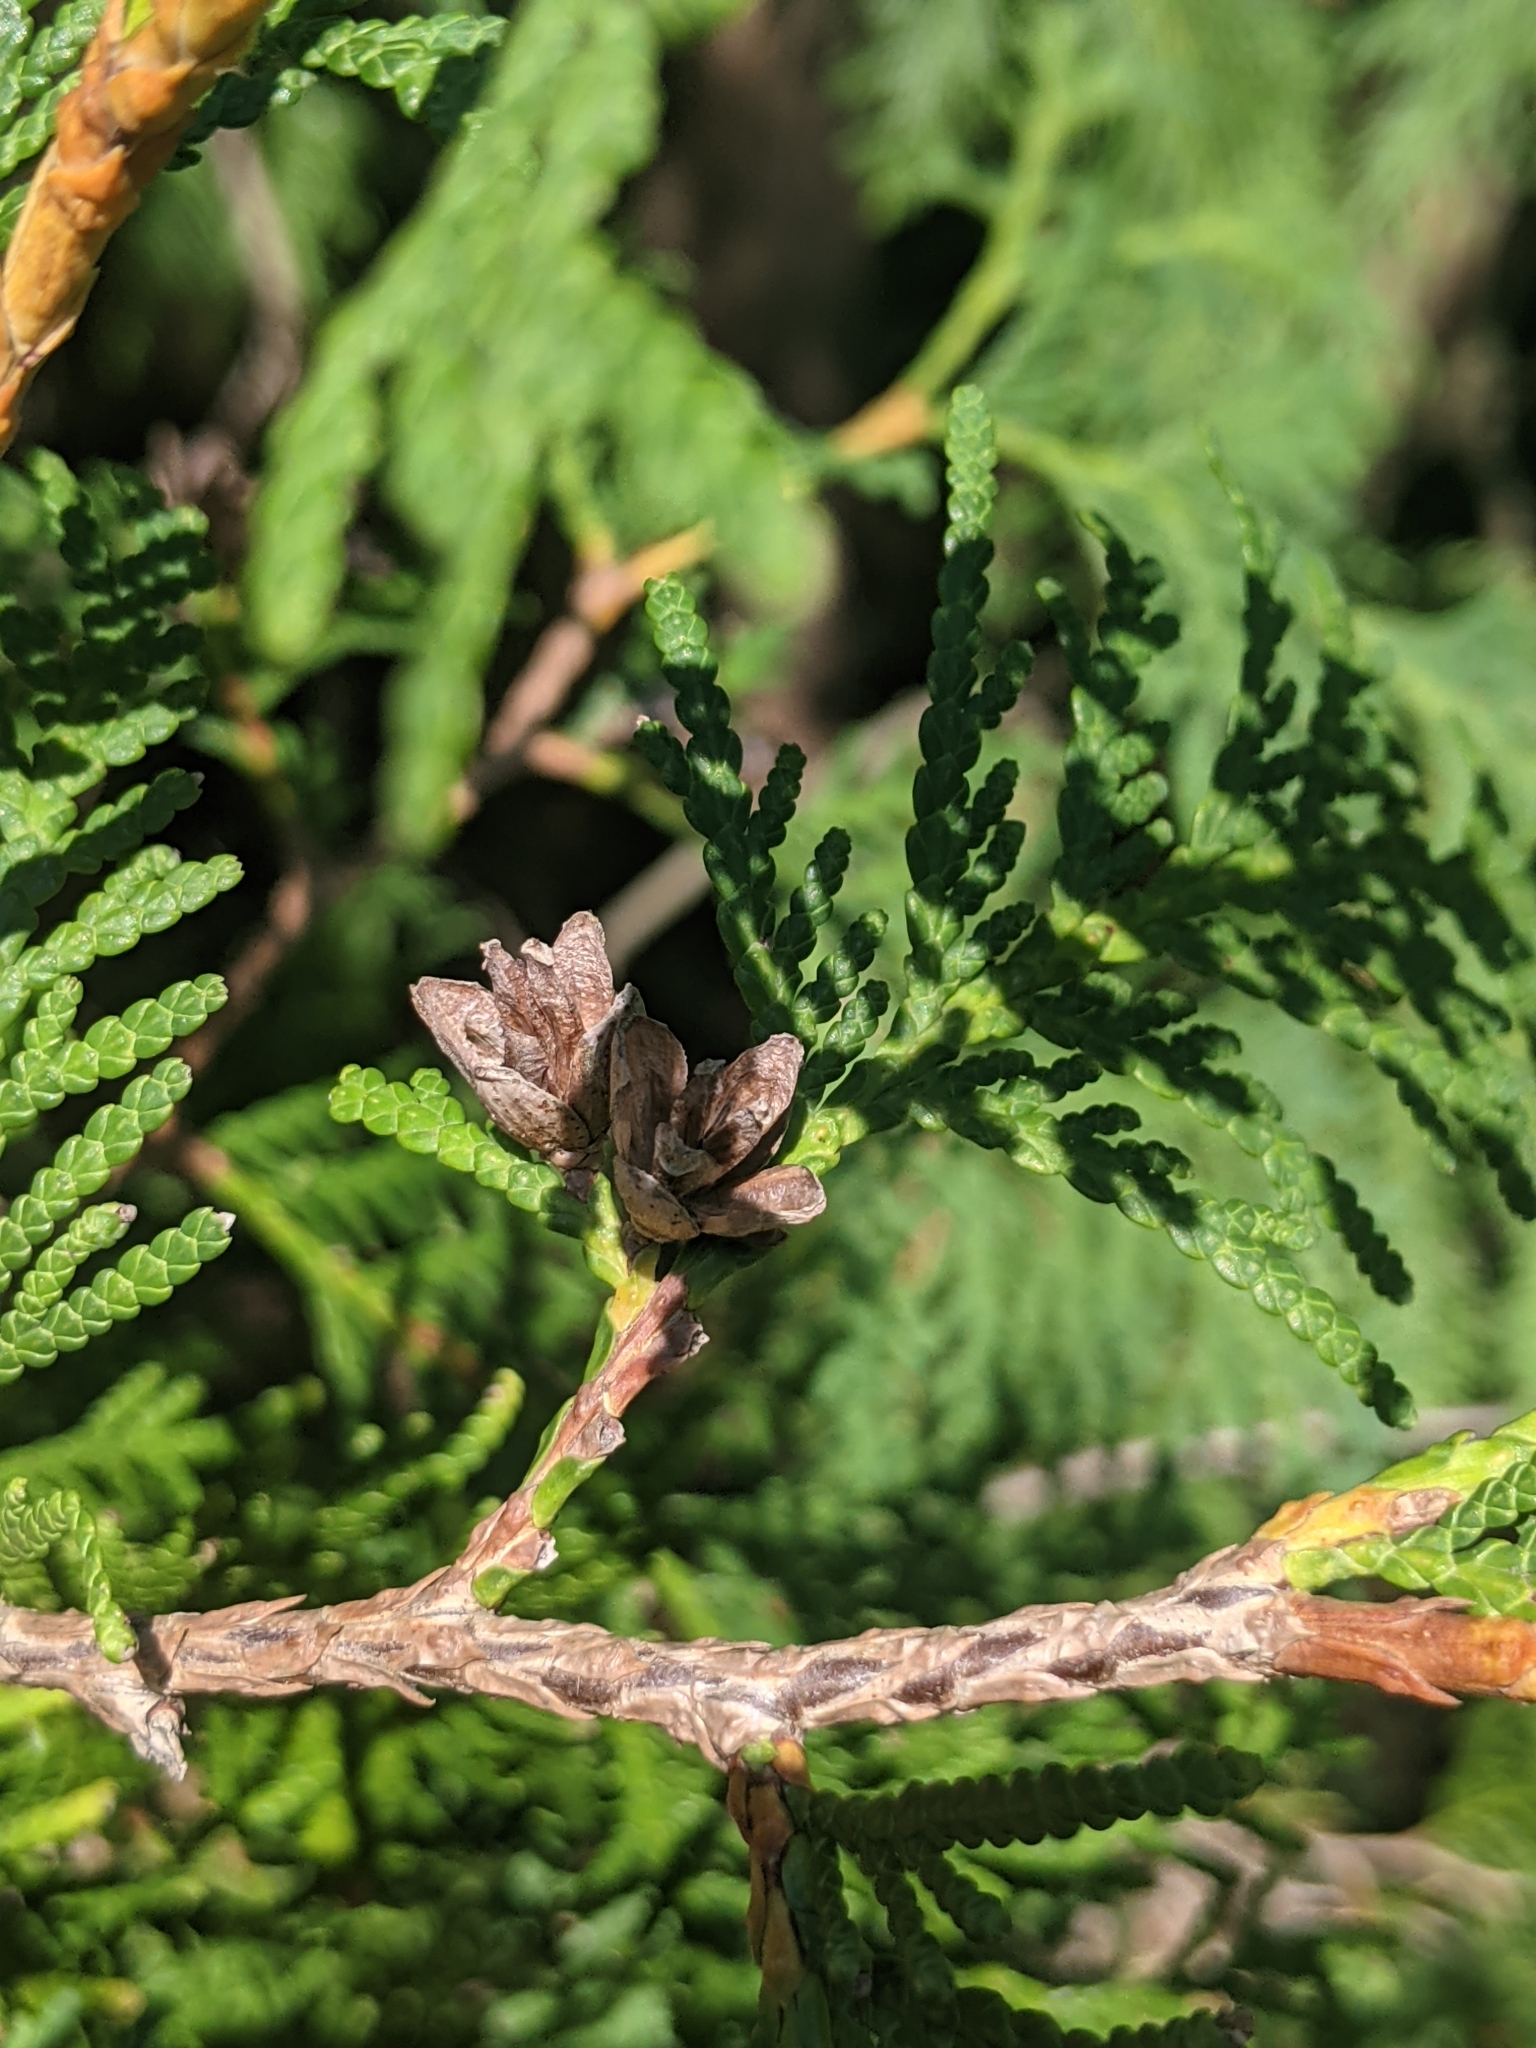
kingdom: Plantae
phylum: Tracheophyta
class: Pinopsida
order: Pinales
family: Cupressaceae
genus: Thuja
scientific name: Thuja occidentalis
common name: Northern white-cedar
